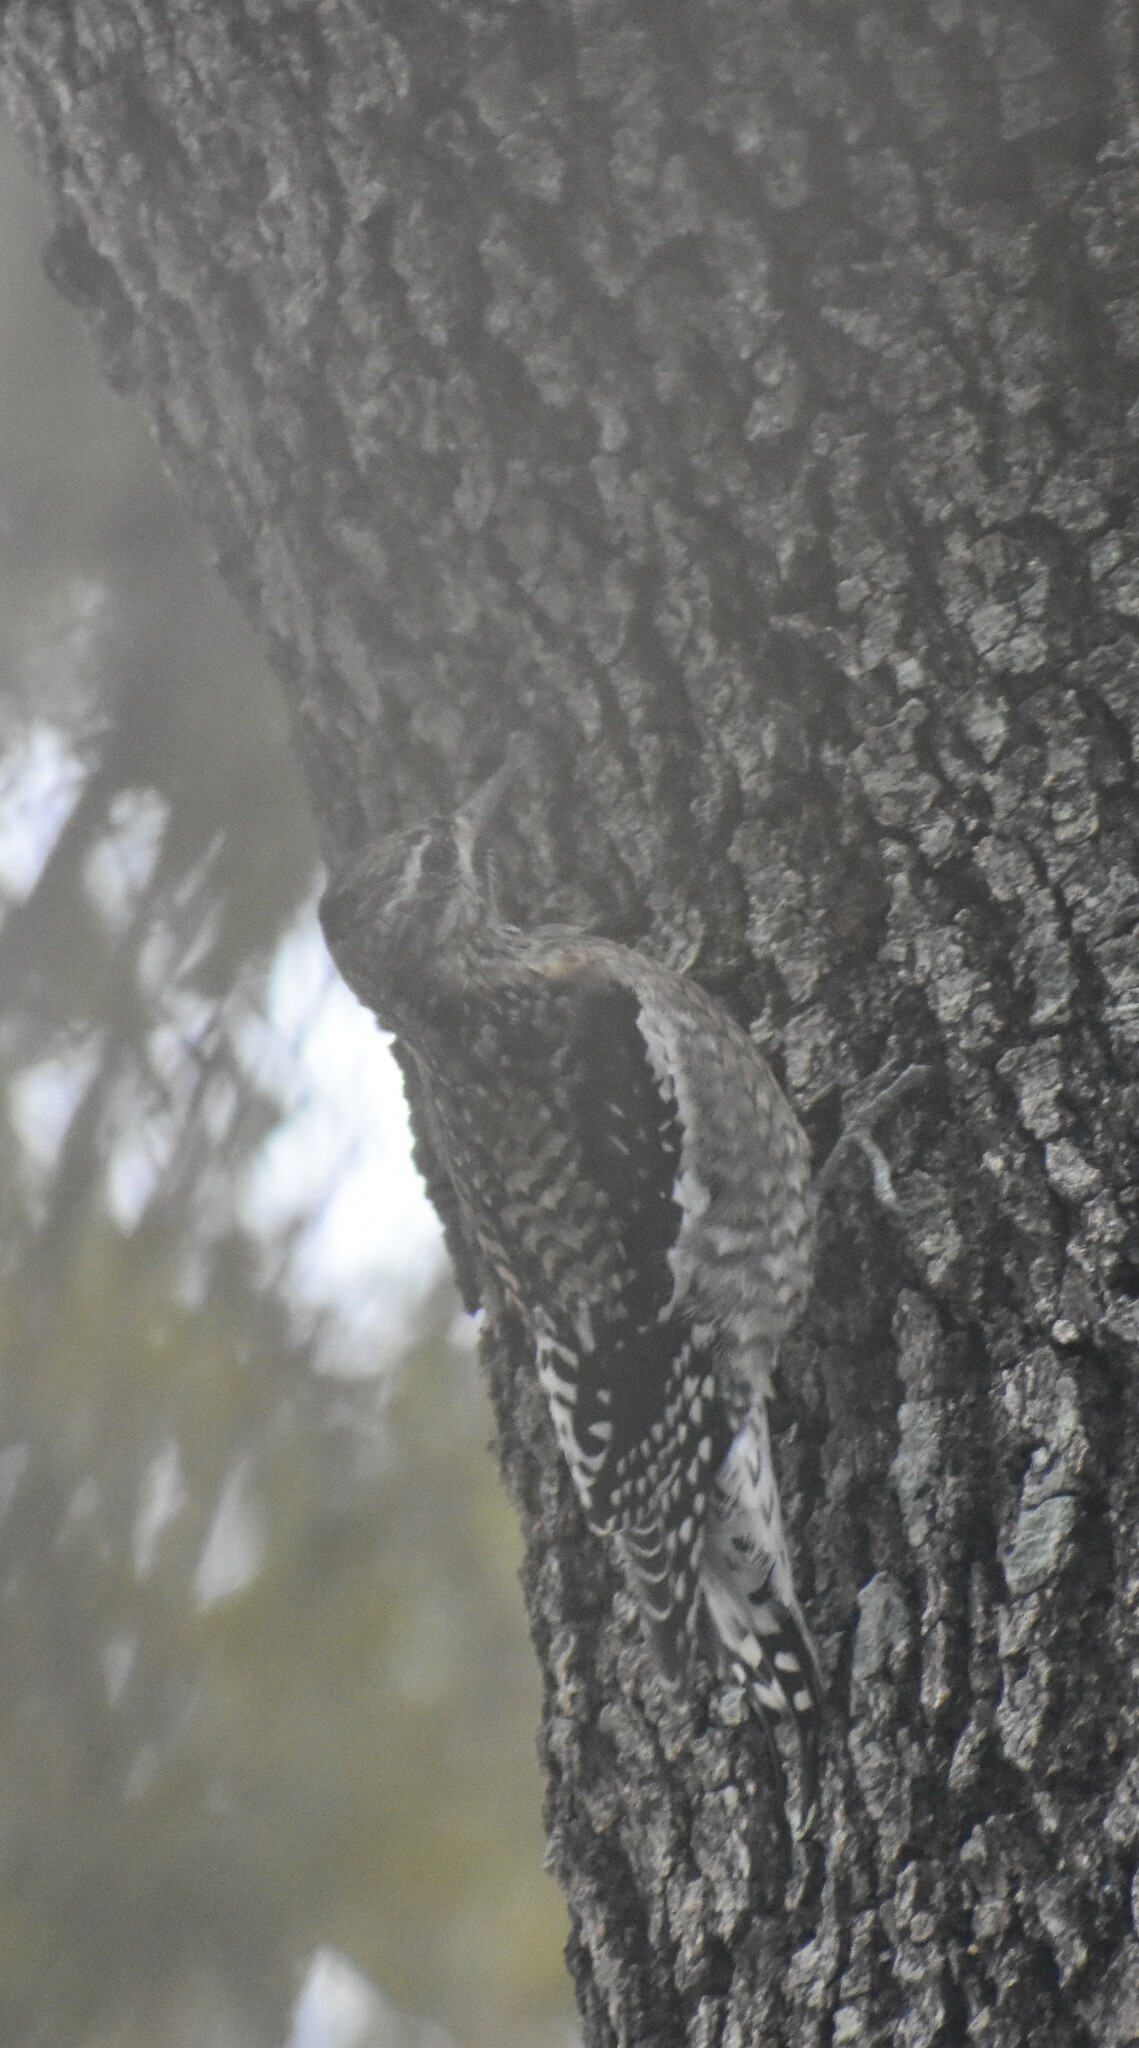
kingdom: Animalia
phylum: Chordata
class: Aves
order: Piciformes
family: Picidae
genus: Sphyrapicus
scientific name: Sphyrapicus varius
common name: Yellow-bellied sapsucker
